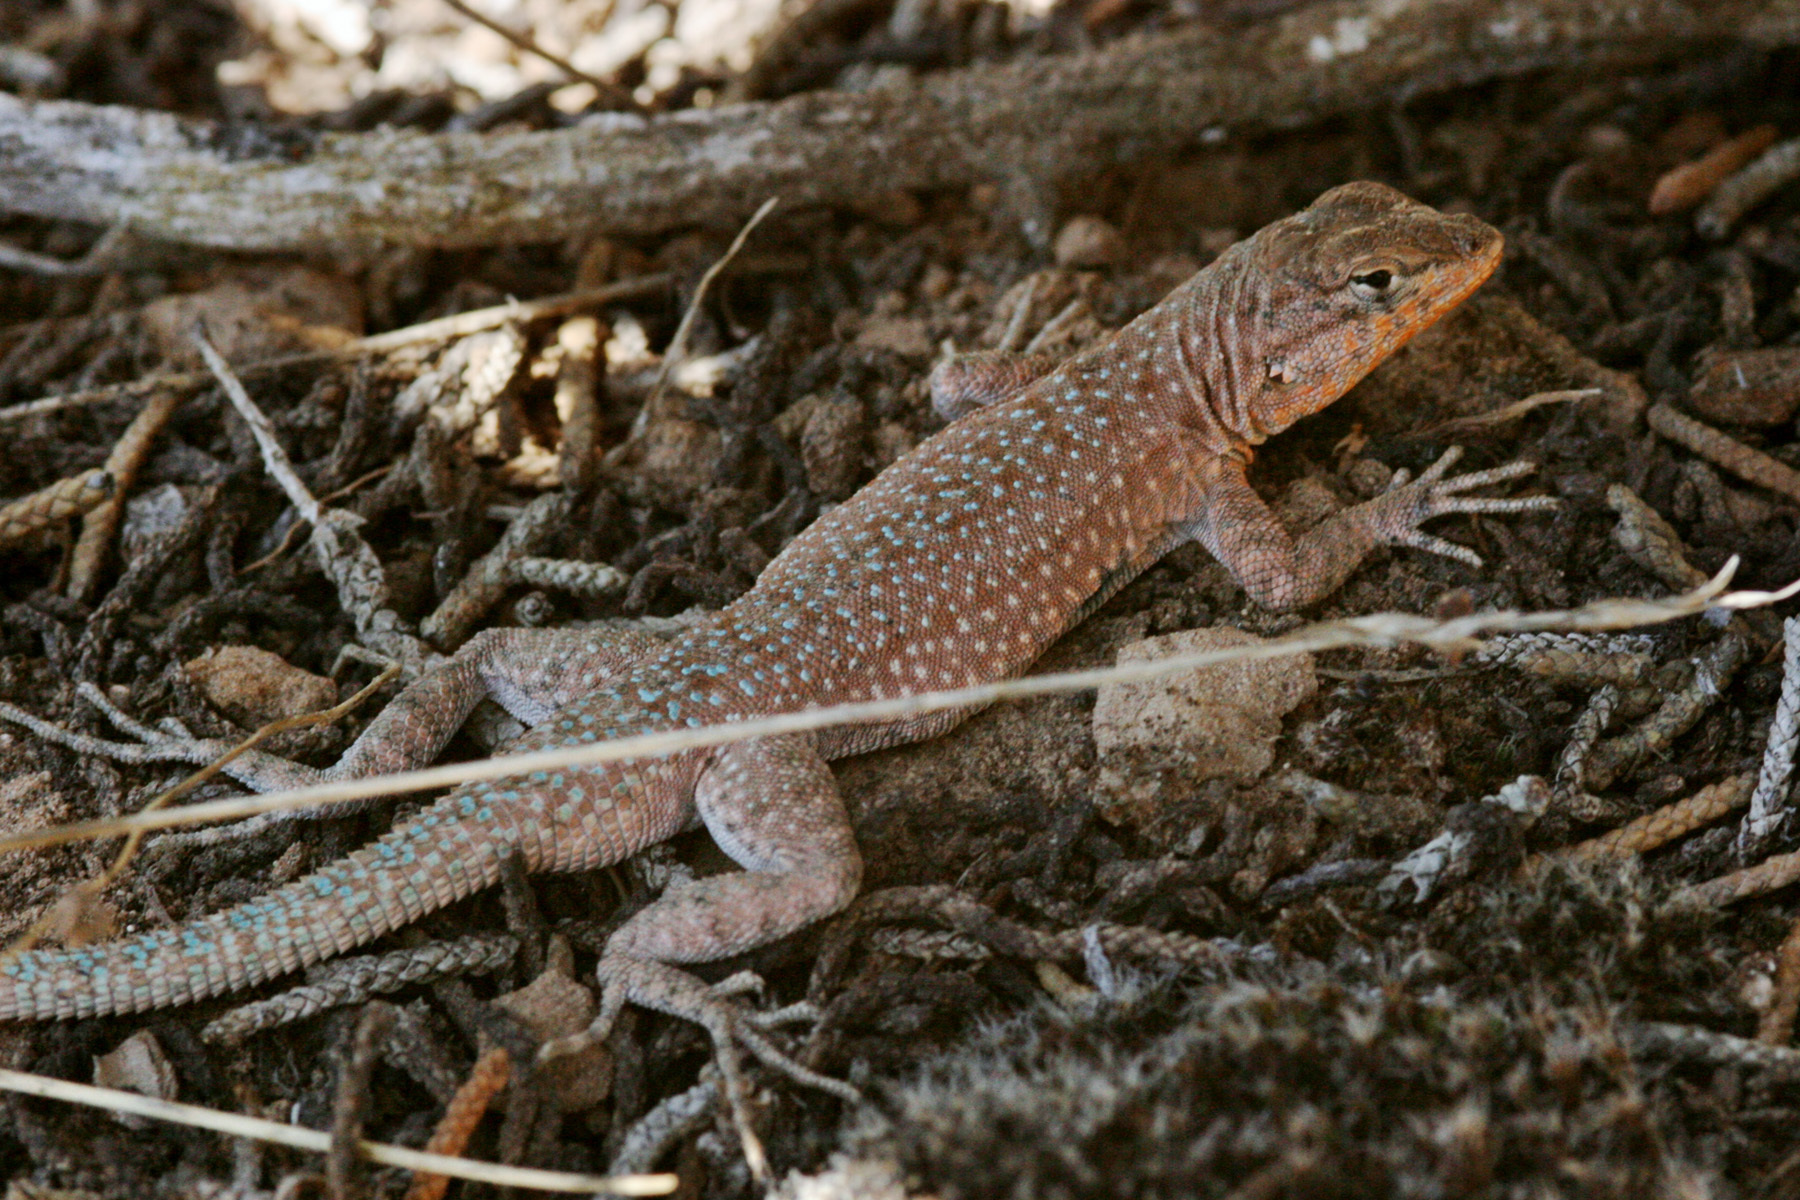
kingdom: Animalia
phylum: Chordata
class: Squamata
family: Phrynosomatidae
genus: Uta
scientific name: Uta stansburiana
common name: Side-blotched lizard
